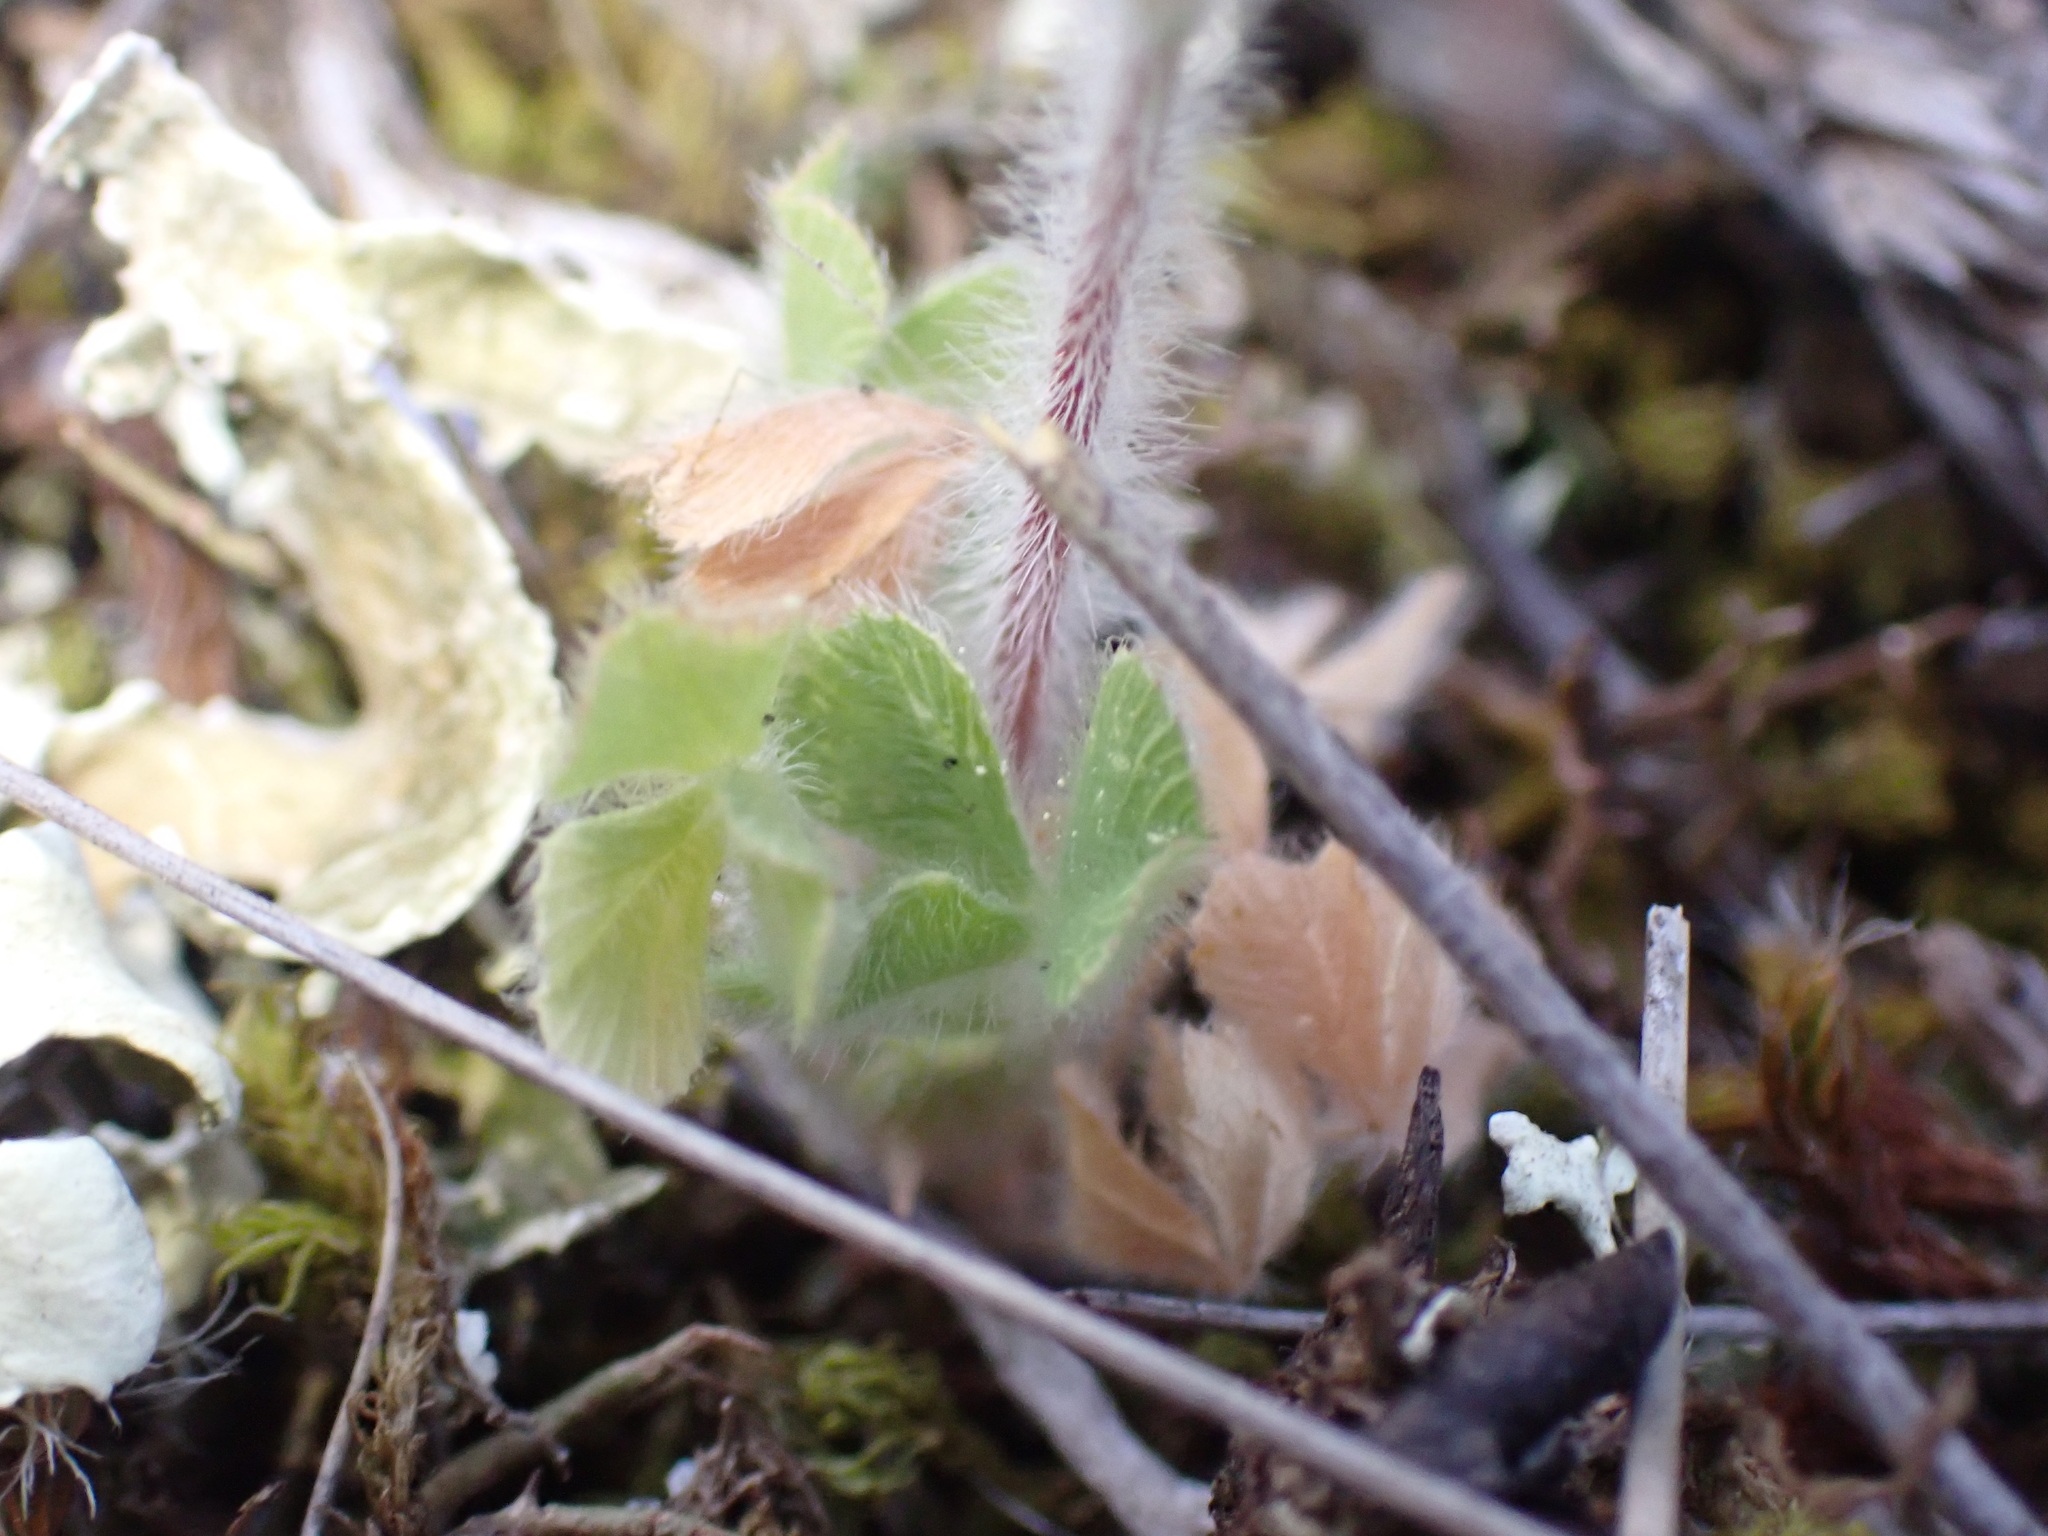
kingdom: Plantae
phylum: Tracheophyta
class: Magnoliopsida
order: Fabales
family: Fabaceae
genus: Trifolium
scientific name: Trifolium stellatum
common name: Starry clover
